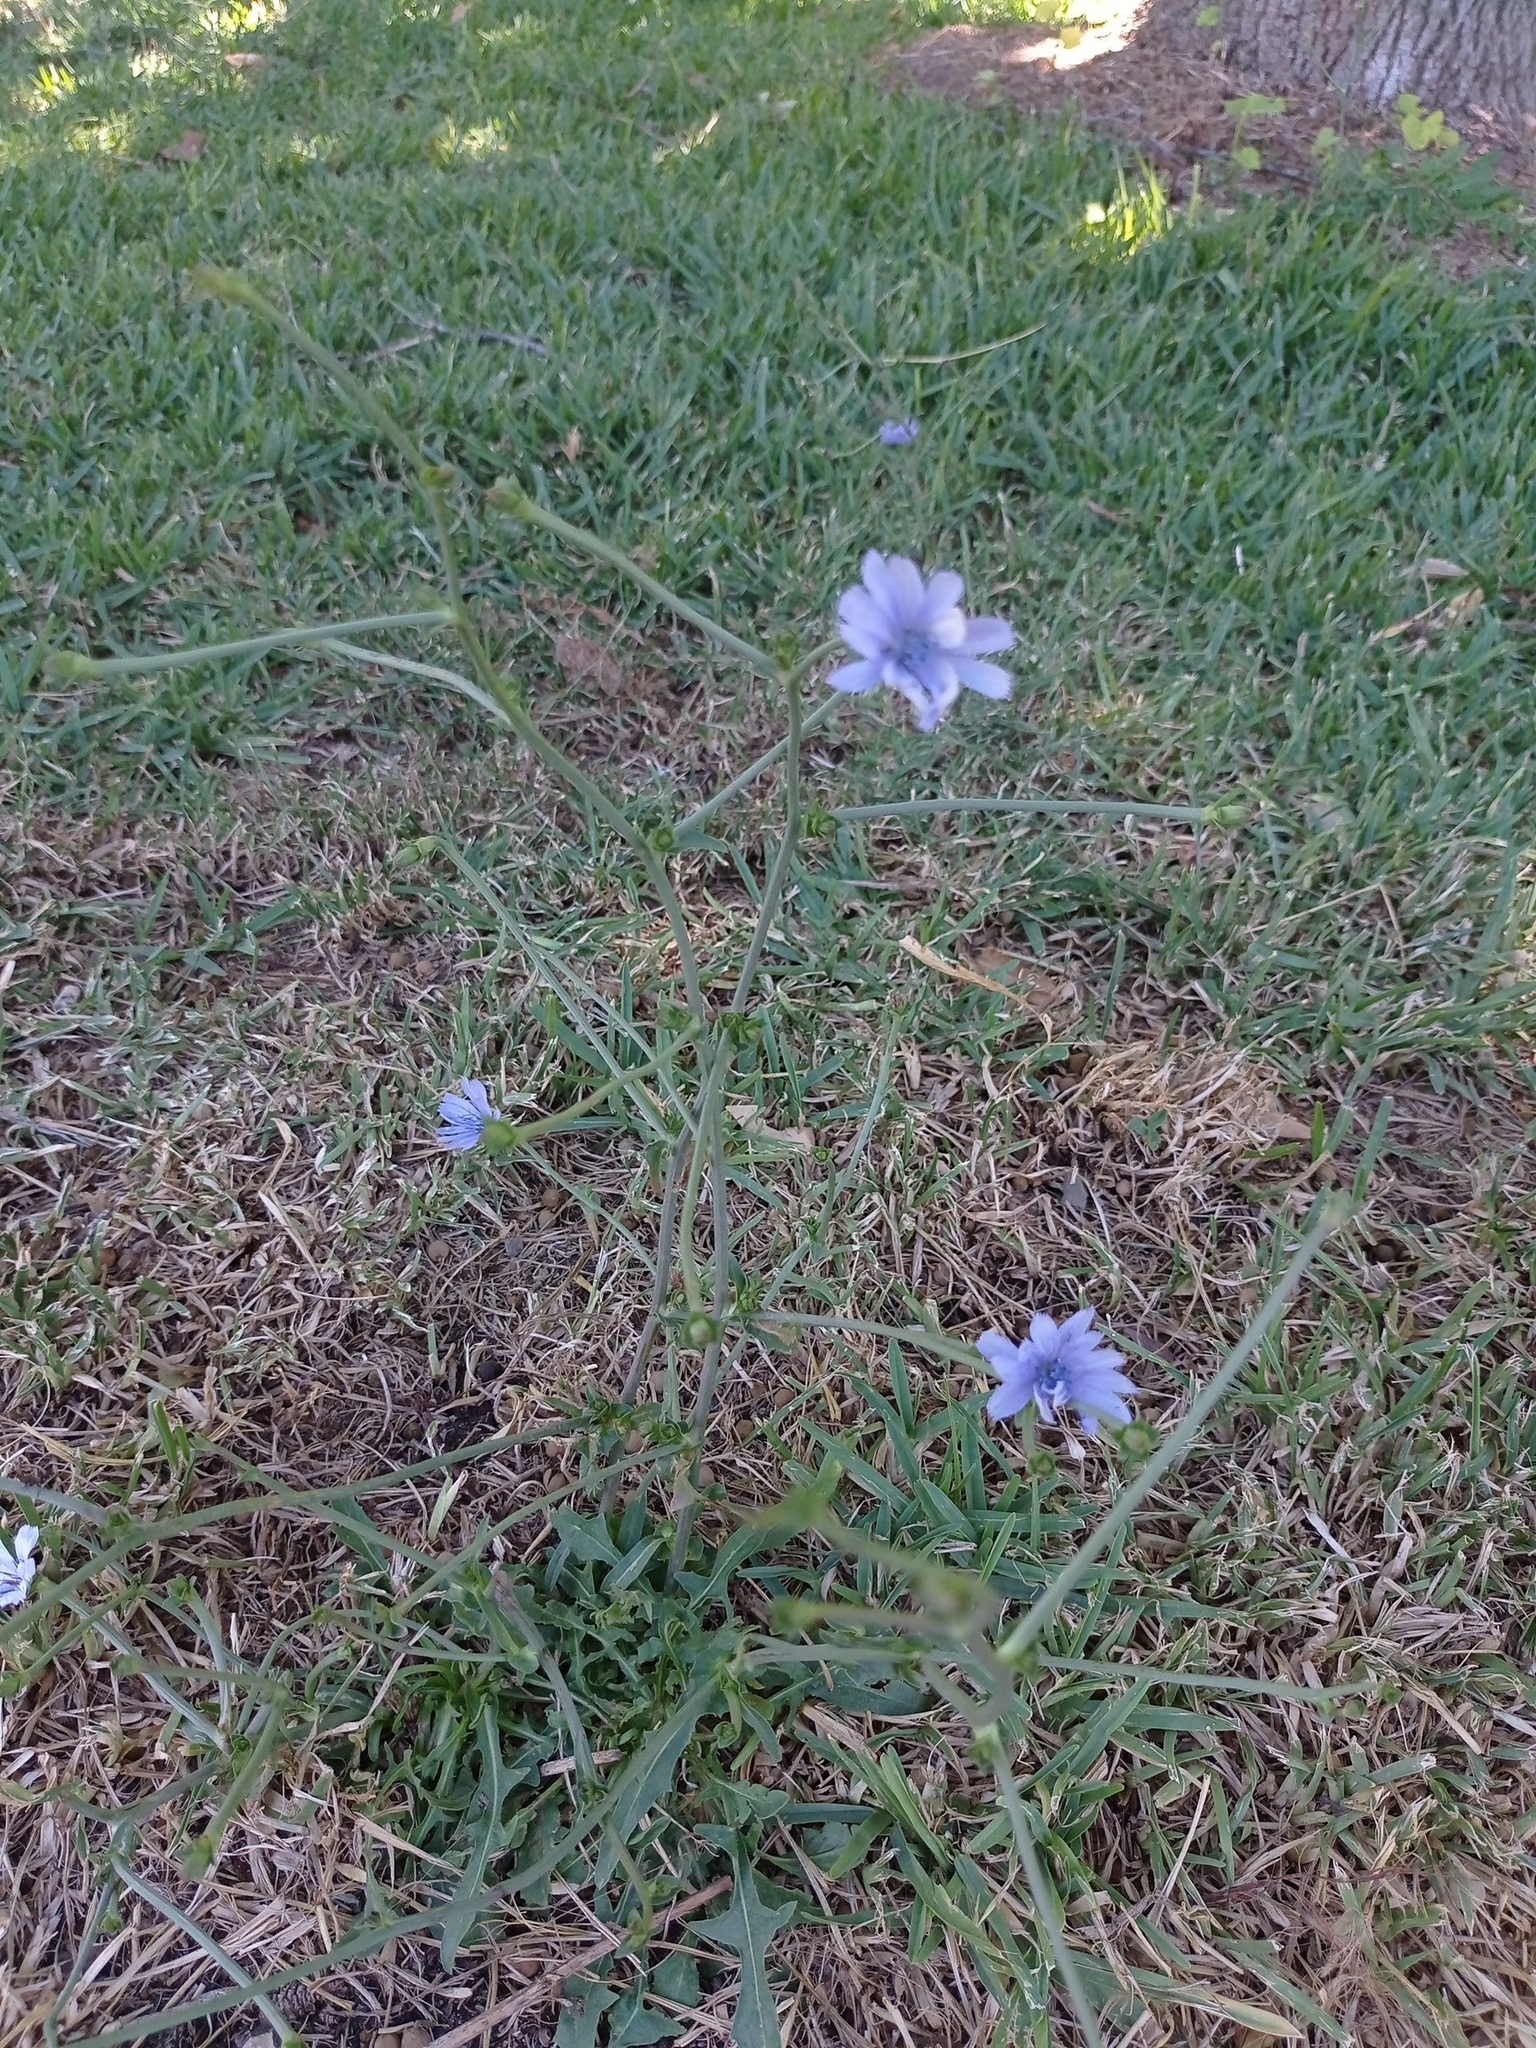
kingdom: Plantae
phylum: Tracheophyta
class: Magnoliopsida
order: Asterales
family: Asteraceae
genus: Cichorium
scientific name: Cichorium intybus
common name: Chicory
